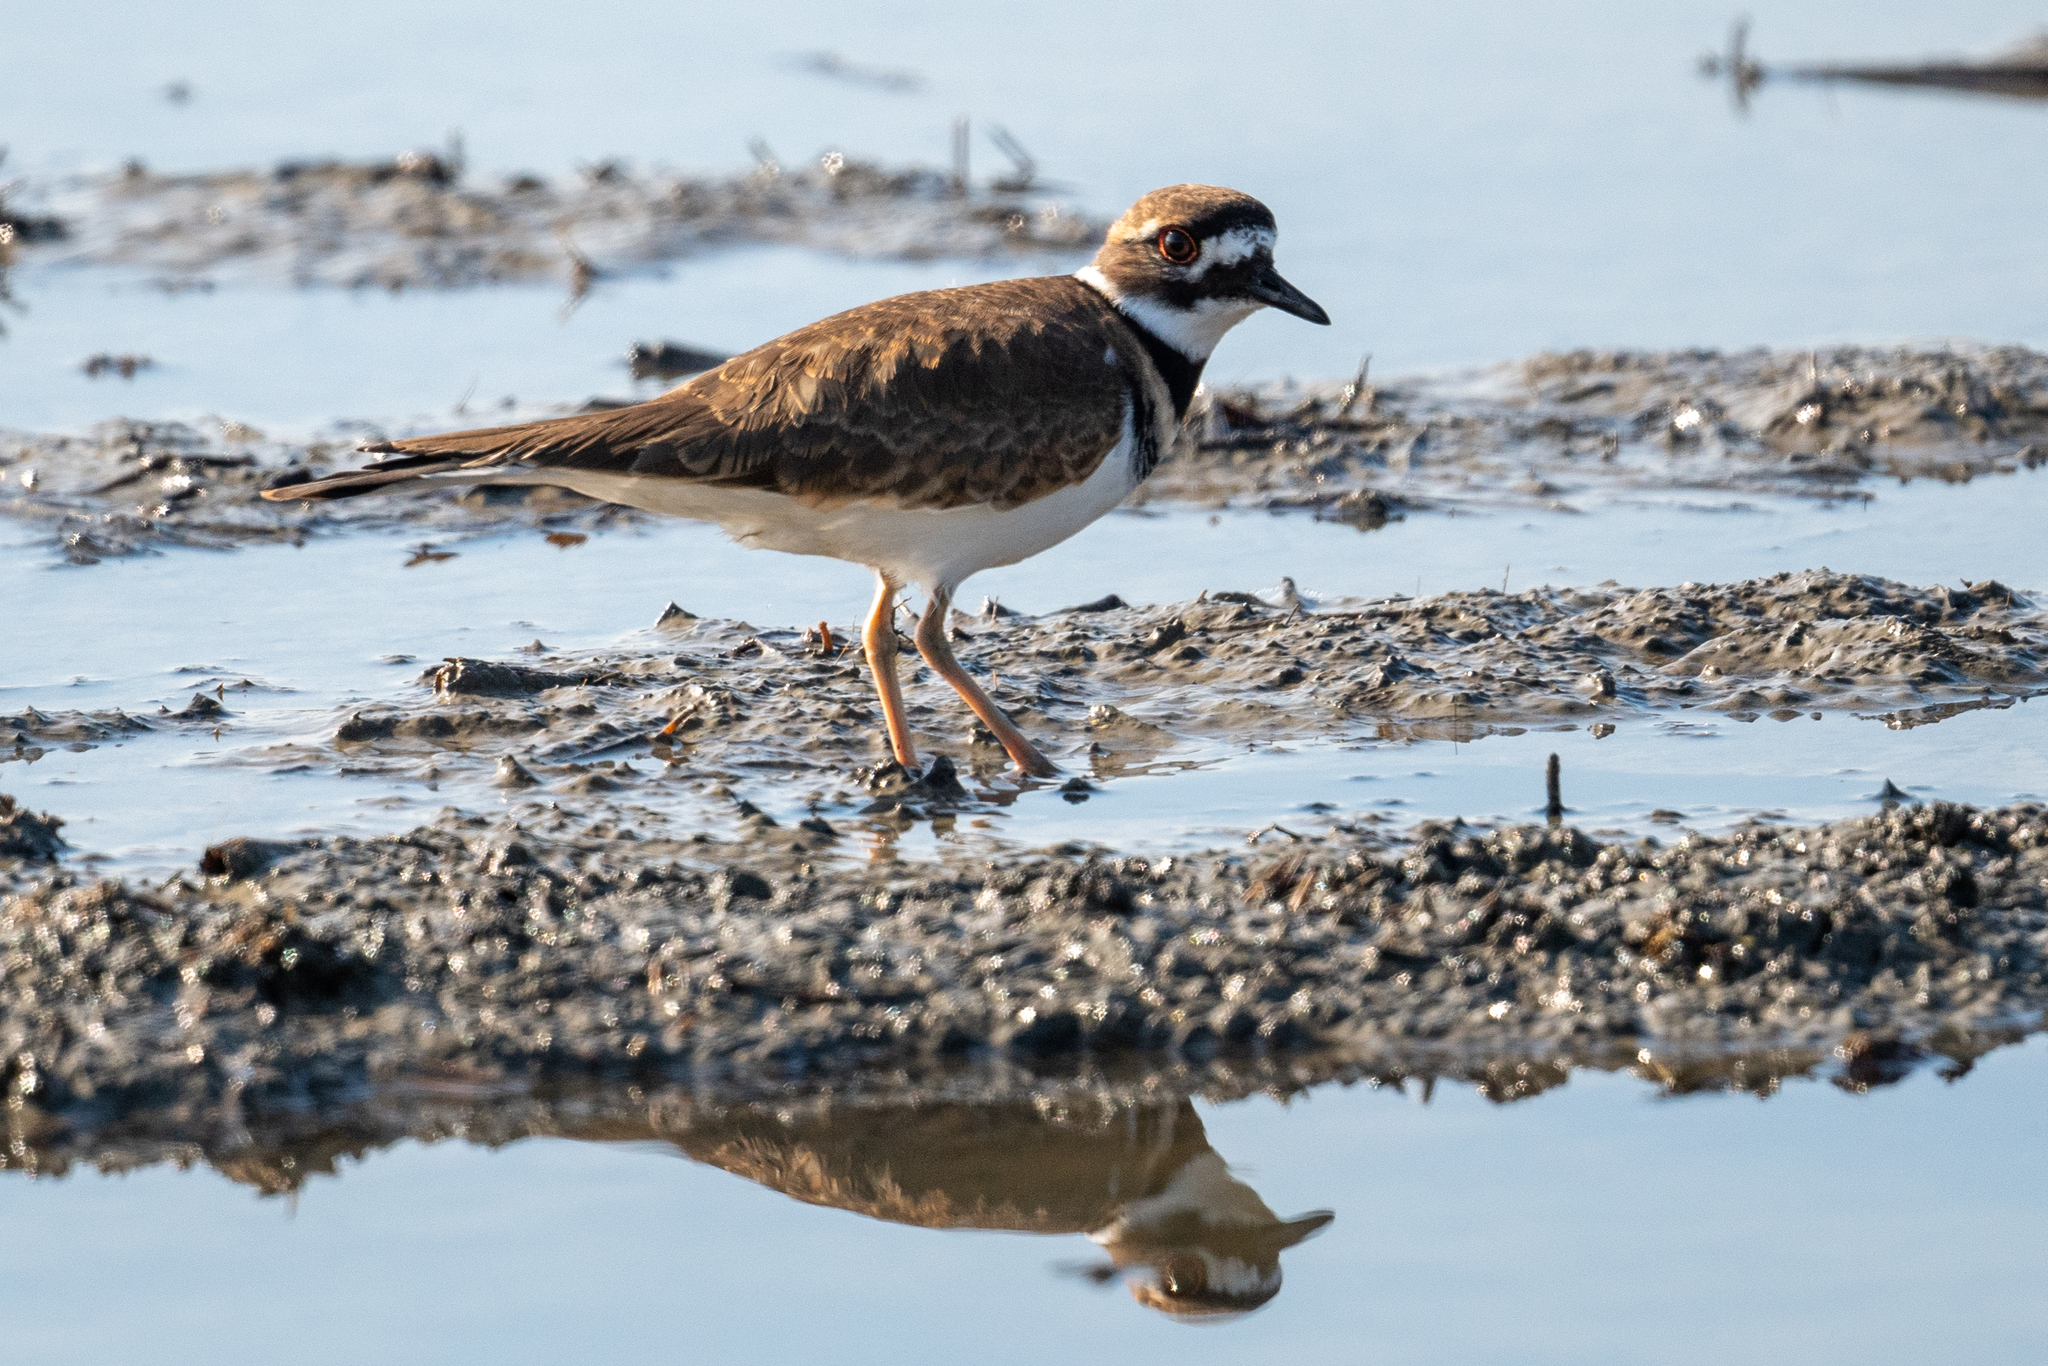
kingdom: Animalia
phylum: Chordata
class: Aves
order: Charadriiformes
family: Charadriidae
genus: Charadrius
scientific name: Charadrius vociferus
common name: Killdeer
